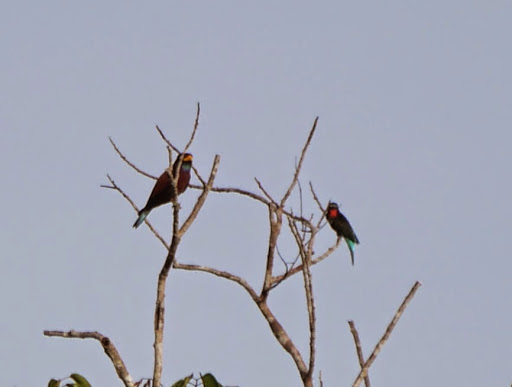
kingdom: Animalia
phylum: Chordata
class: Aves
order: Coraciiformes
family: Coraciidae
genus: Eurystomus
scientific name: Eurystomus gularis
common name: Blue-throated roller
